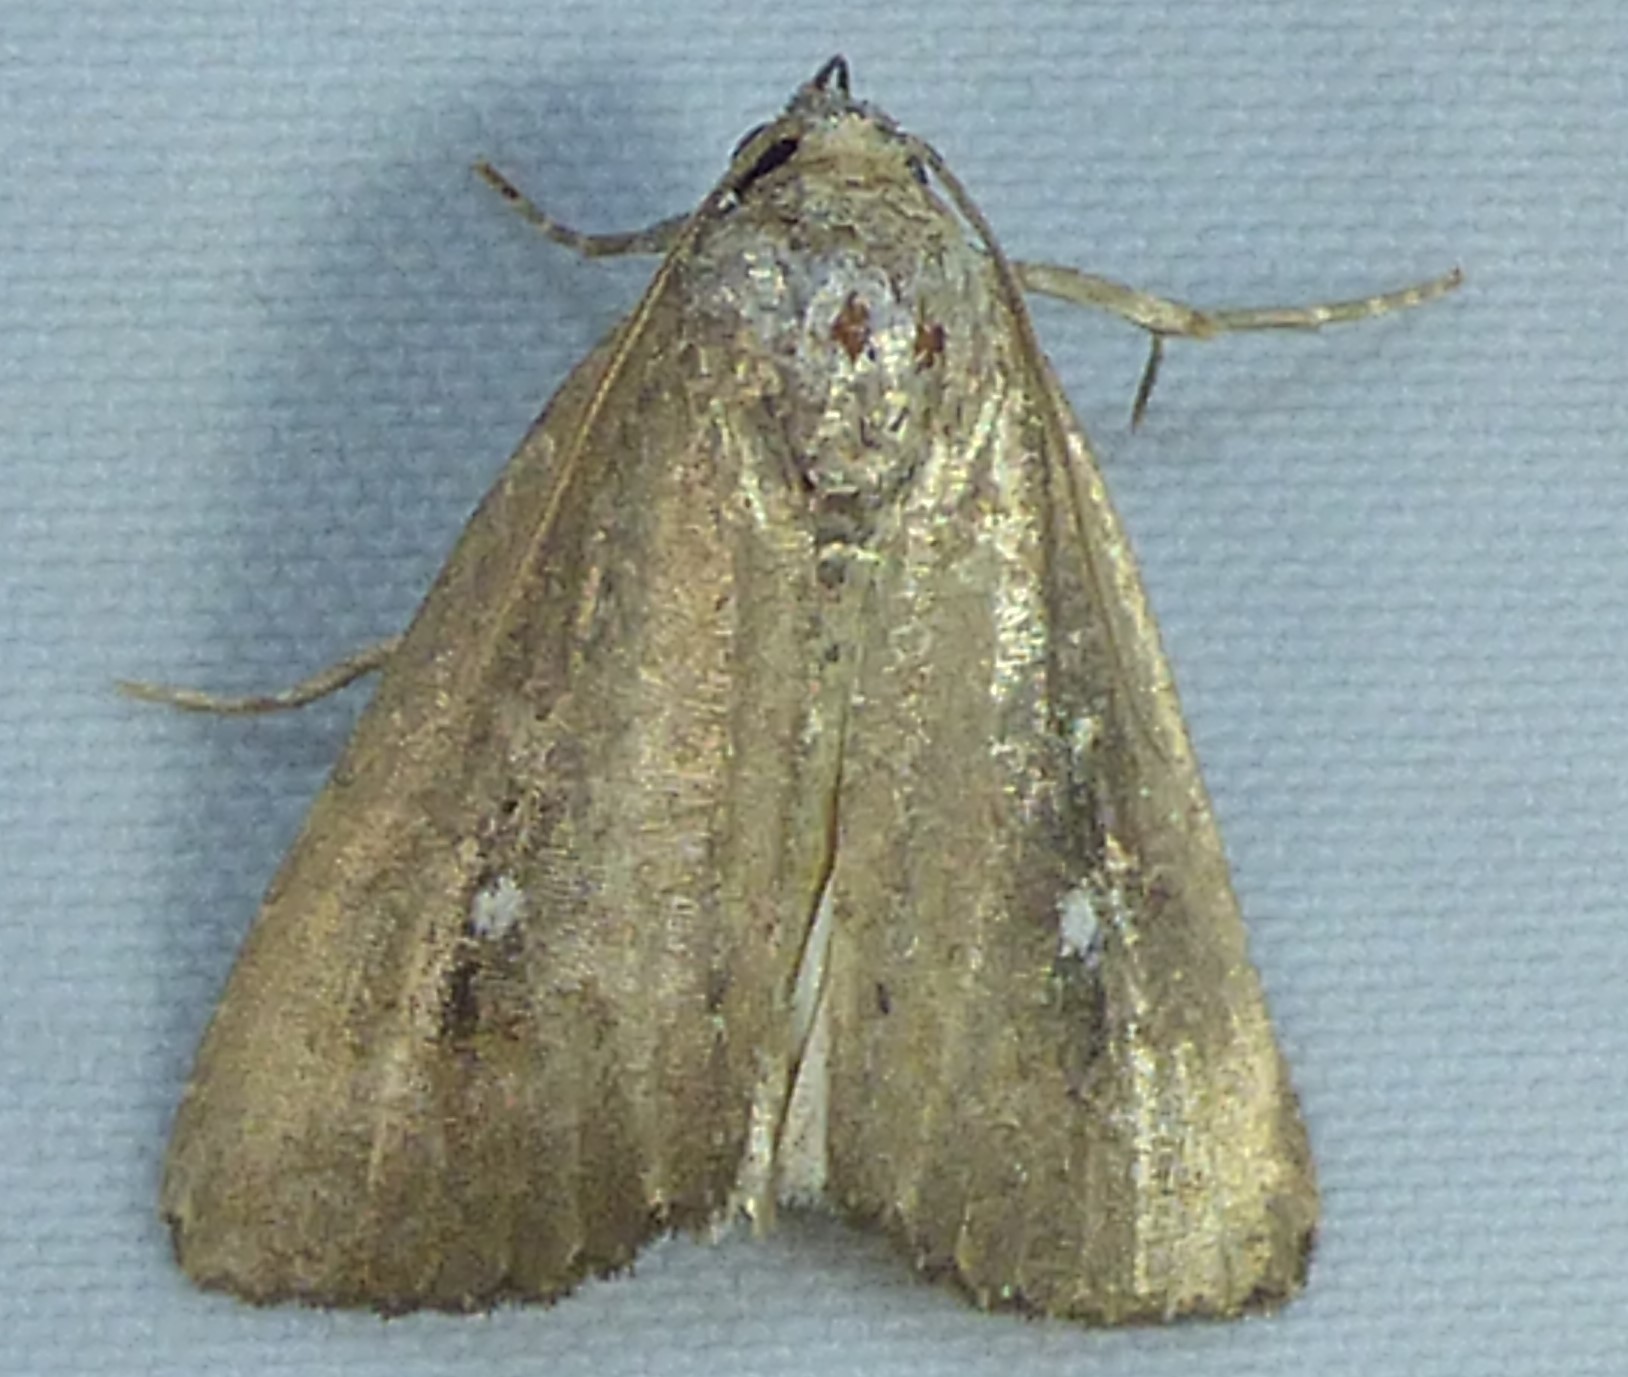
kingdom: Animalia
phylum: Arthropoda
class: Insecta
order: Lepidoptera
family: Noctuidae
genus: Condica
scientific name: Condica videns
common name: White-dotted groundling
